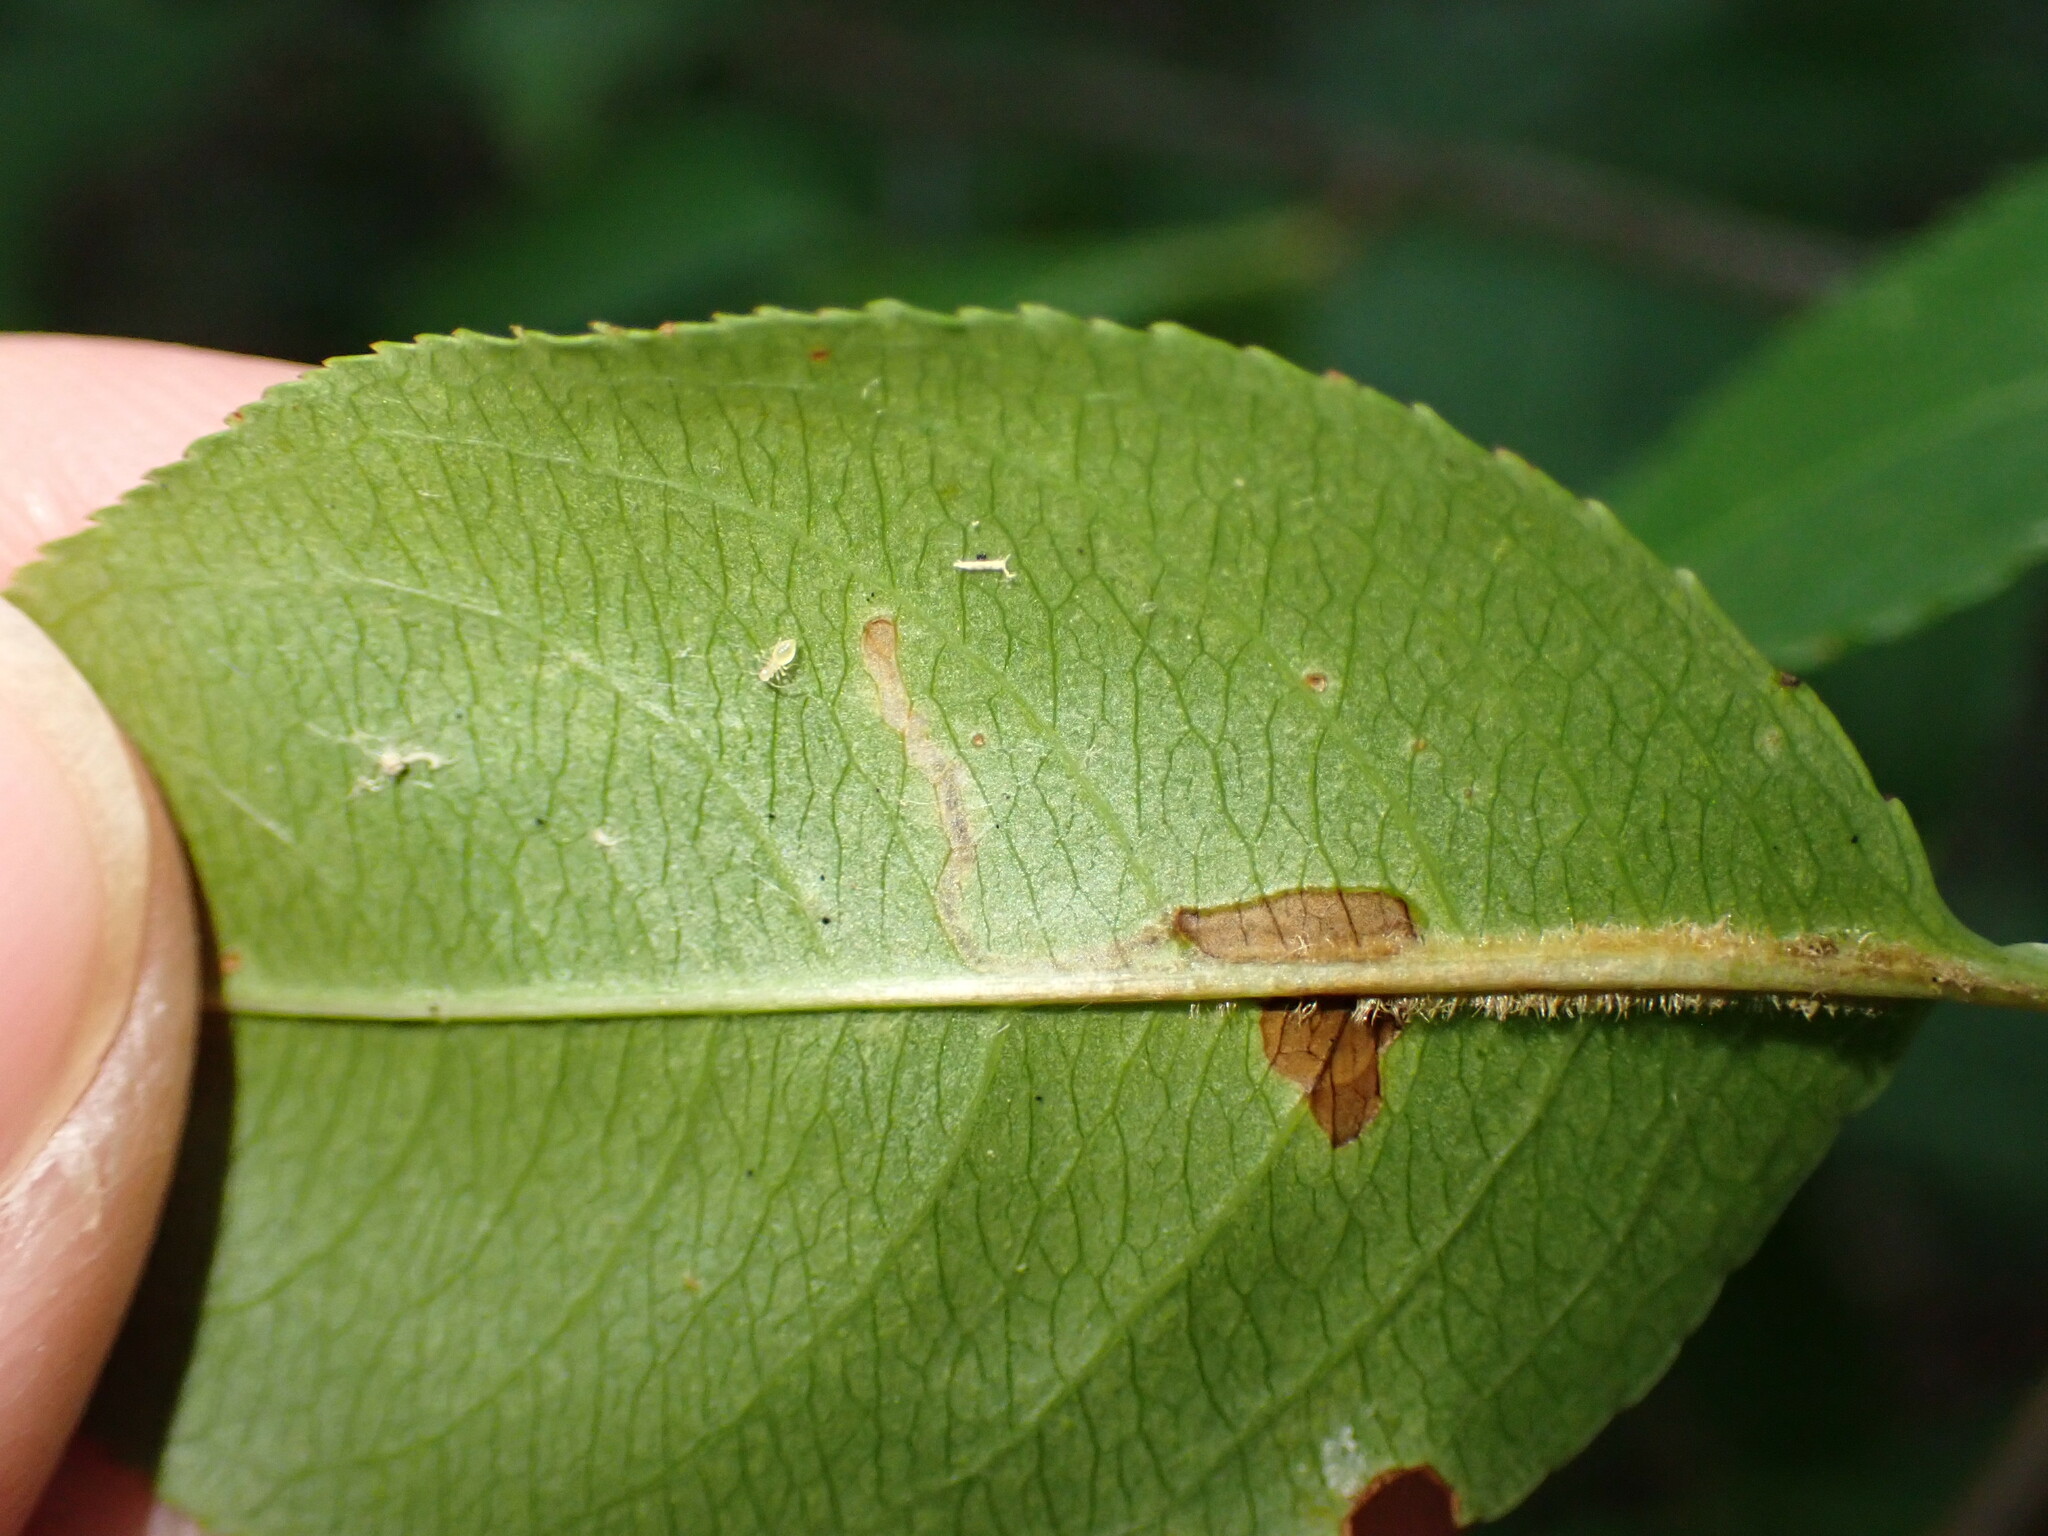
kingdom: Animalia
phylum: Arthropoda
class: Insecta
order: Lepidoptera
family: Nepticulidae
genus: Stigmella
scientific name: Stigmella prunifoliella
